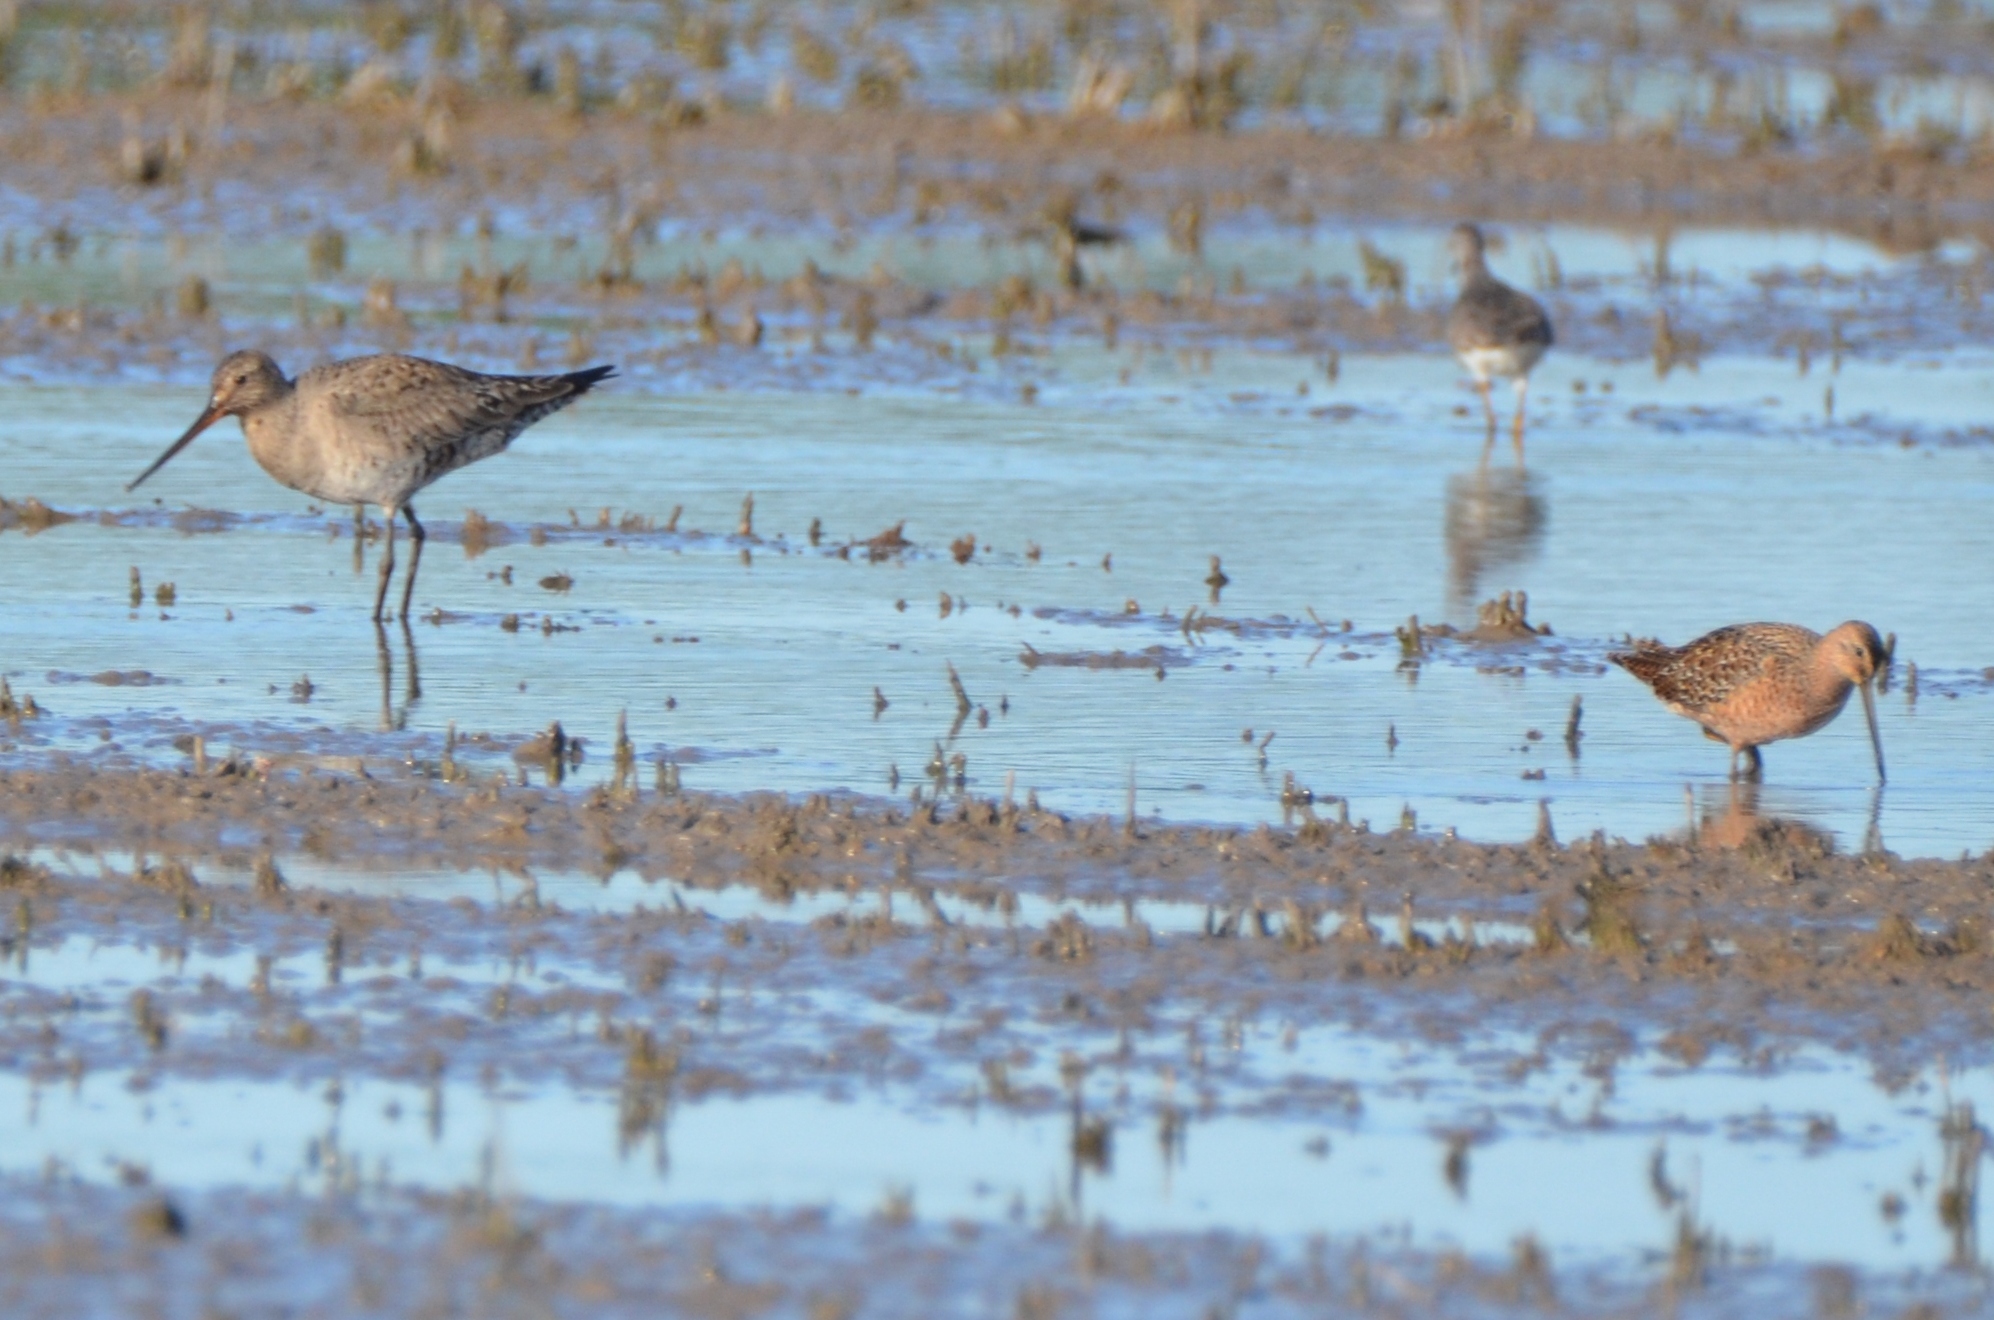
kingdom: Animalia
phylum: Chordata
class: Aves
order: Charadriiformes
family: Scolopacidae
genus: Limosa
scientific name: Limosa haemastica
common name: Hudsonian godwit
